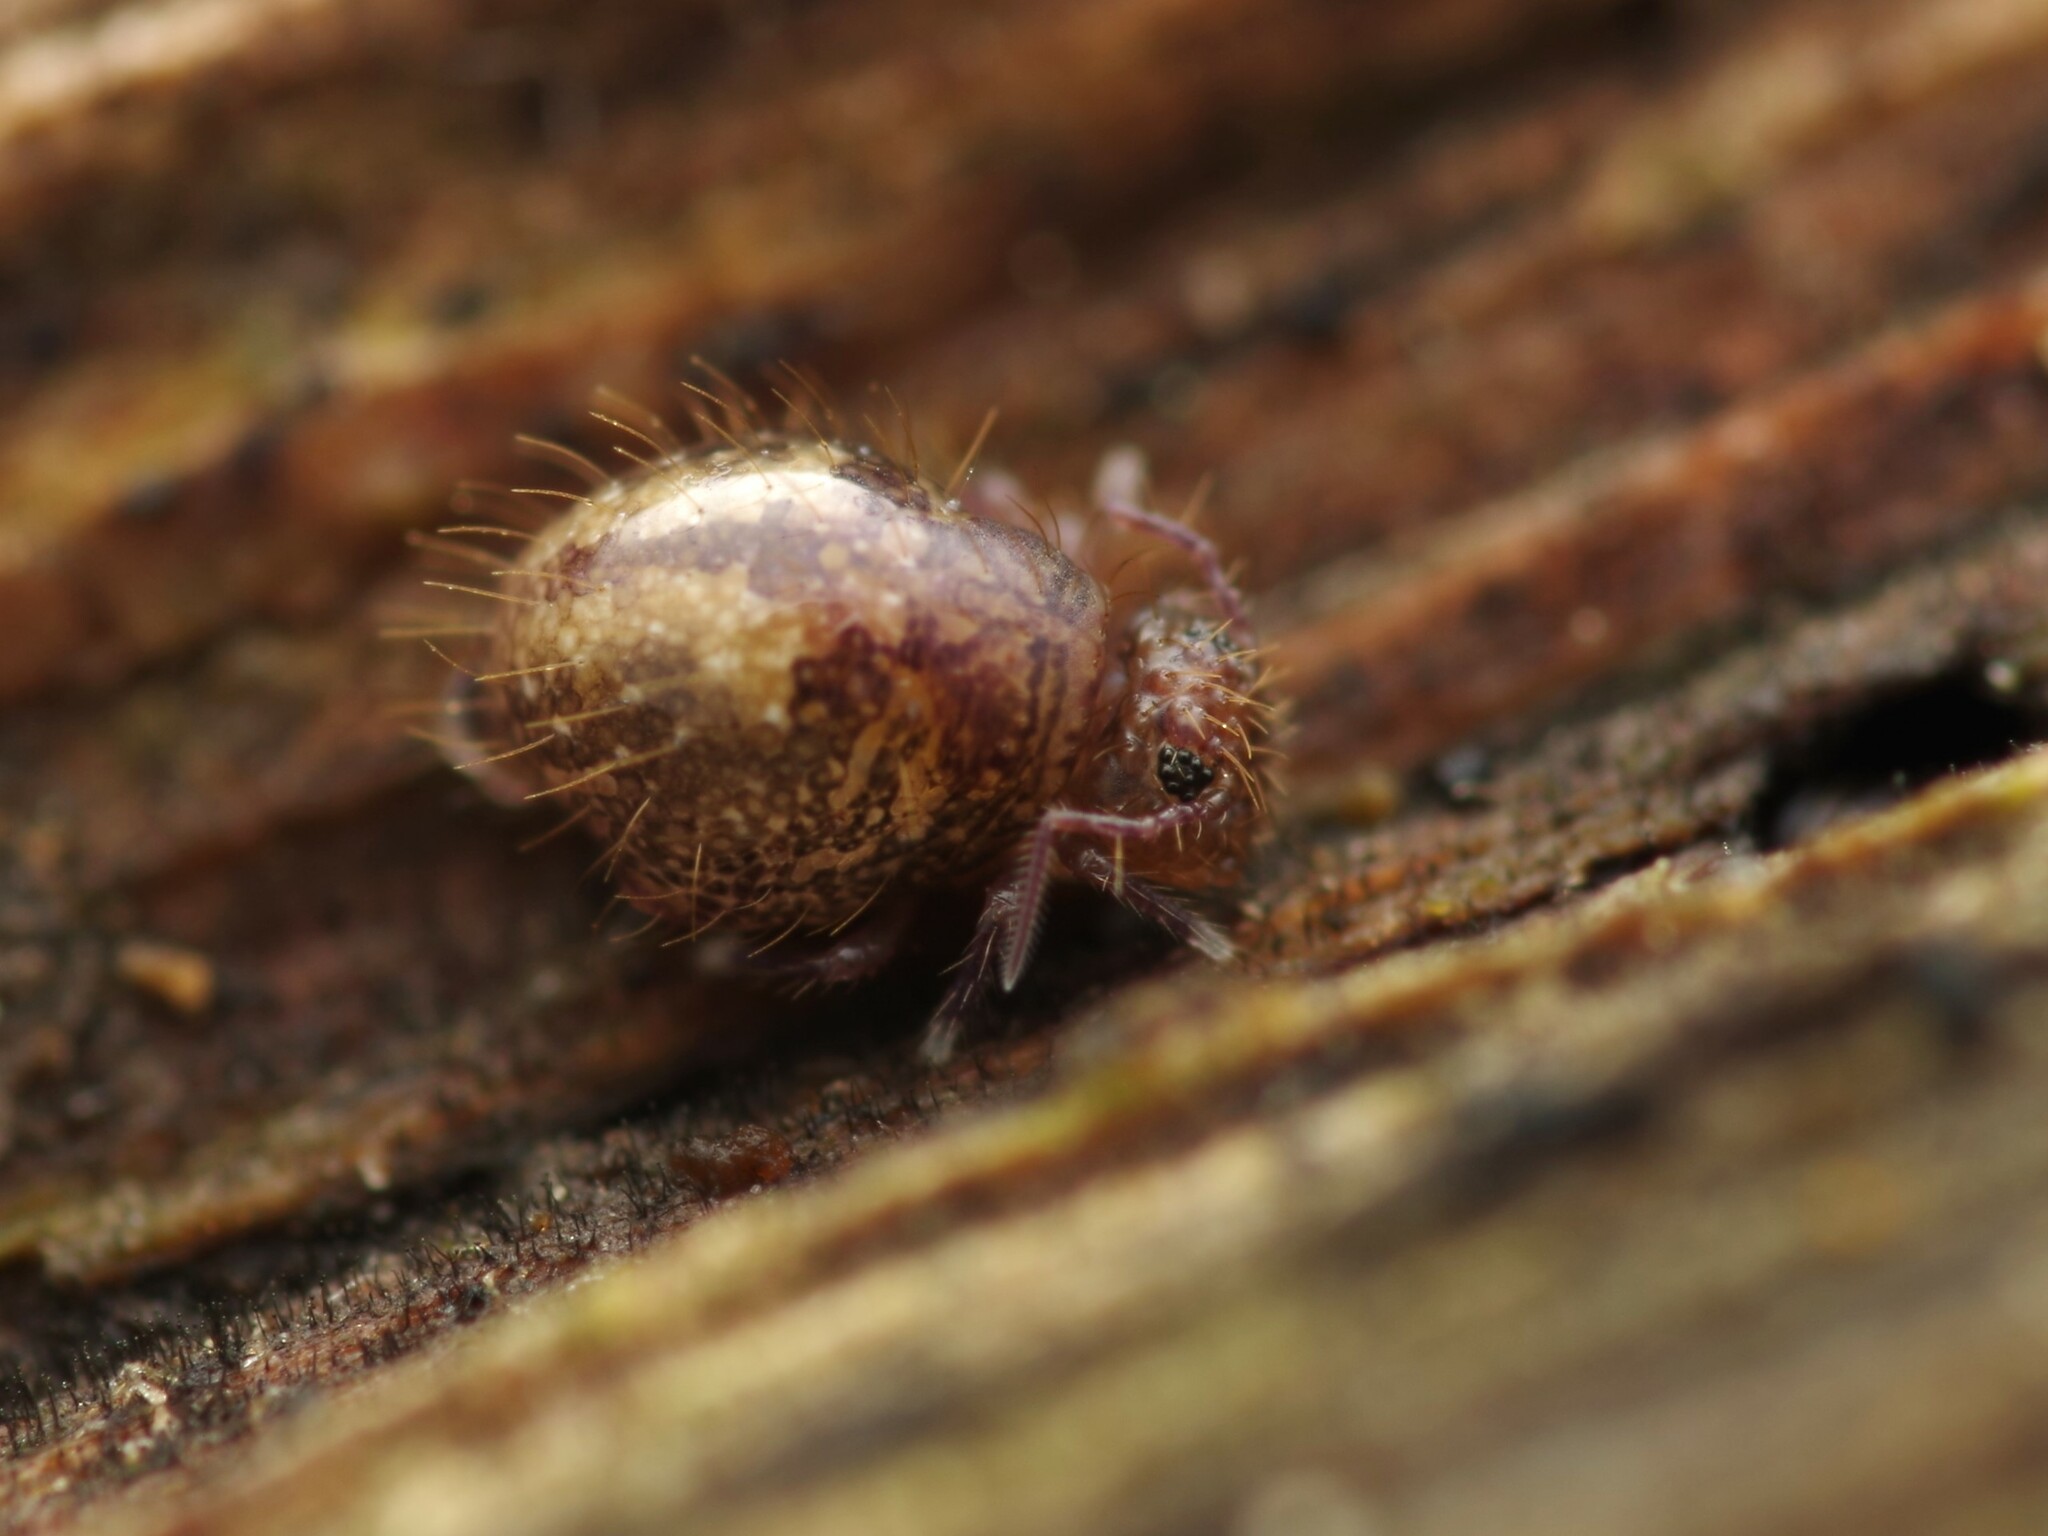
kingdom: Animalia
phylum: Arthropoda
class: Collembola
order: Symphypleona
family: Sminthuridae
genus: Allacma
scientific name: Allacma fusca
